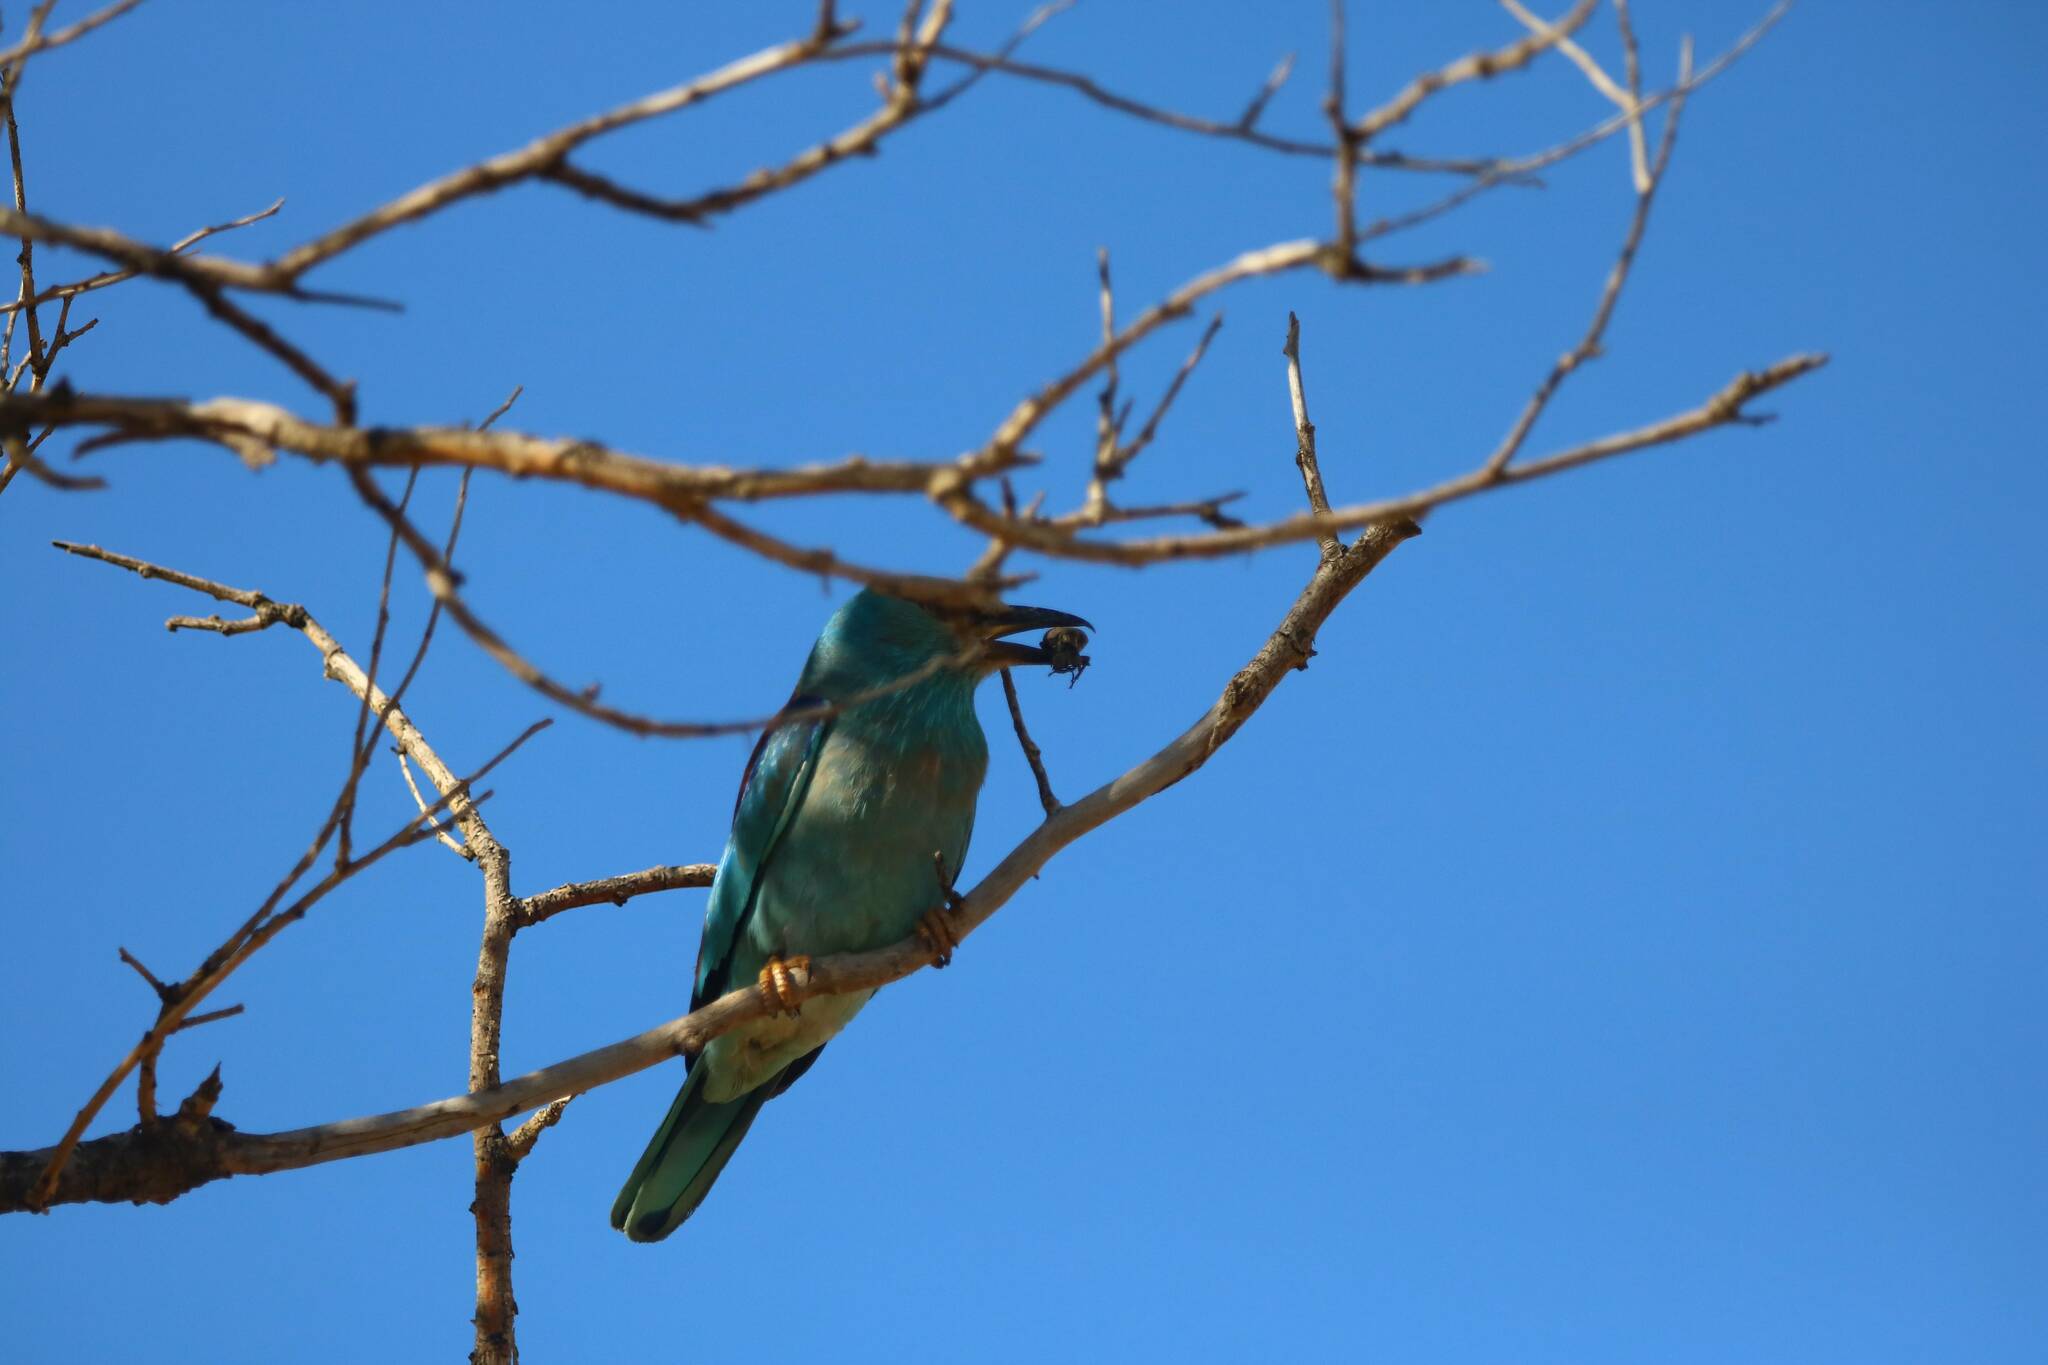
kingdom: Animalia
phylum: Chordata
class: Aves
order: Coraciiformes
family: Coraciidae
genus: Coracias
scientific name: Coracias garrulus
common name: European roller
